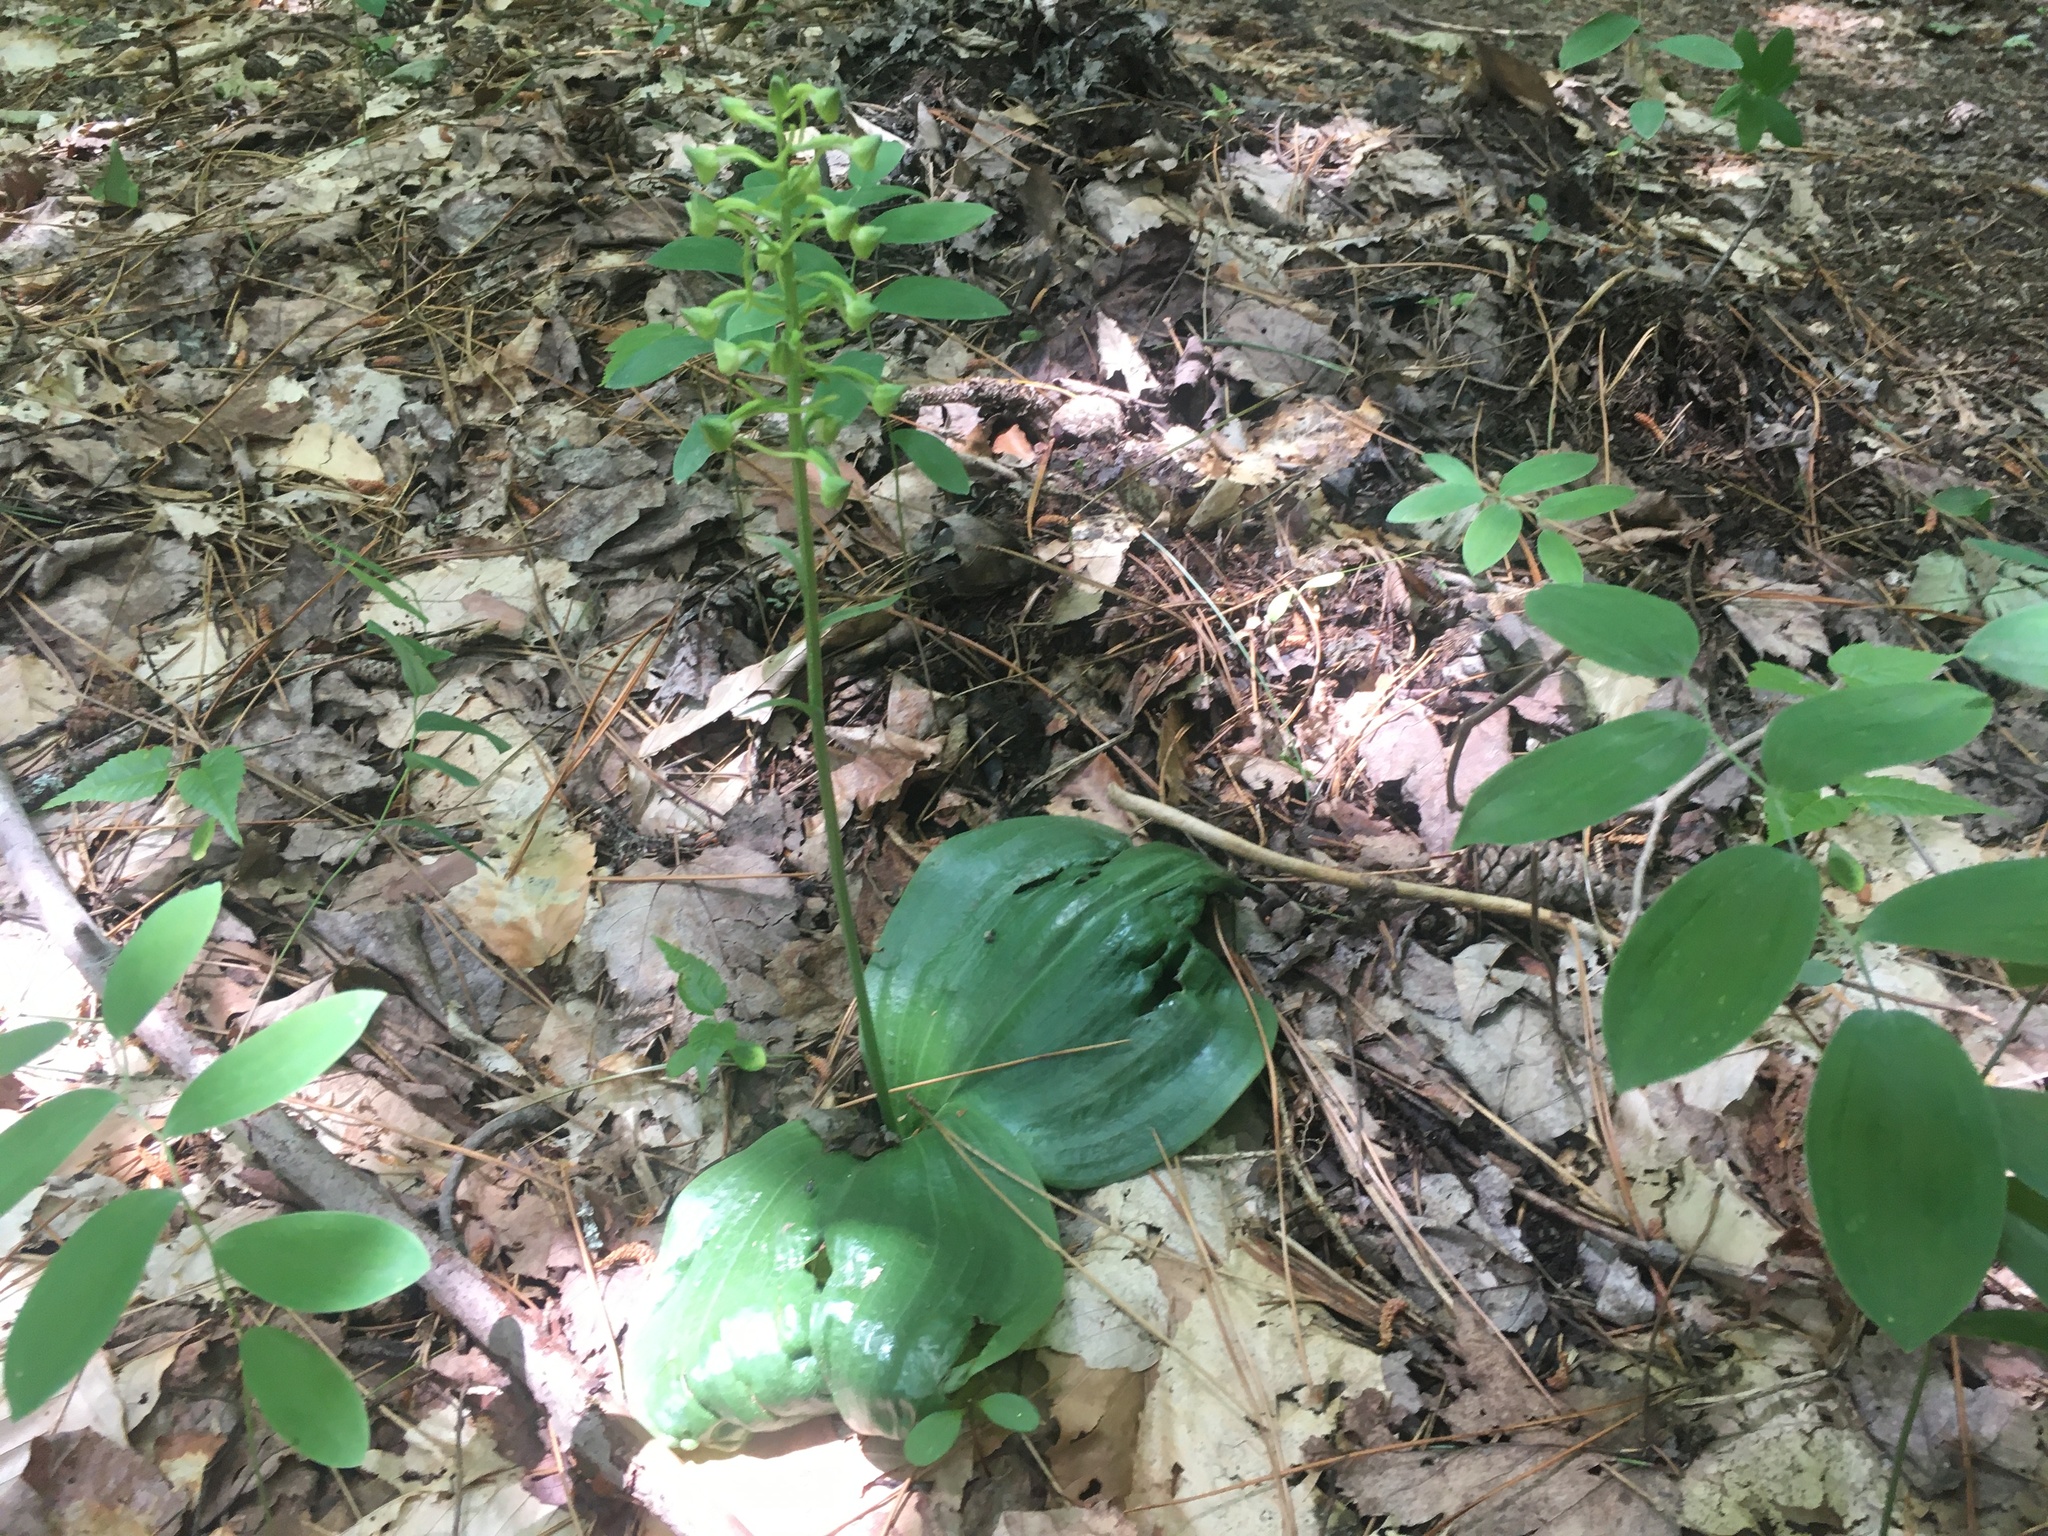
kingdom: Plantae
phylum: Tracheophyta
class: Liliopsida
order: Asparagales
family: Orchidaceae
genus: Platanthera
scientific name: Platanthera orbiculata
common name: Large round-leaved orchid
